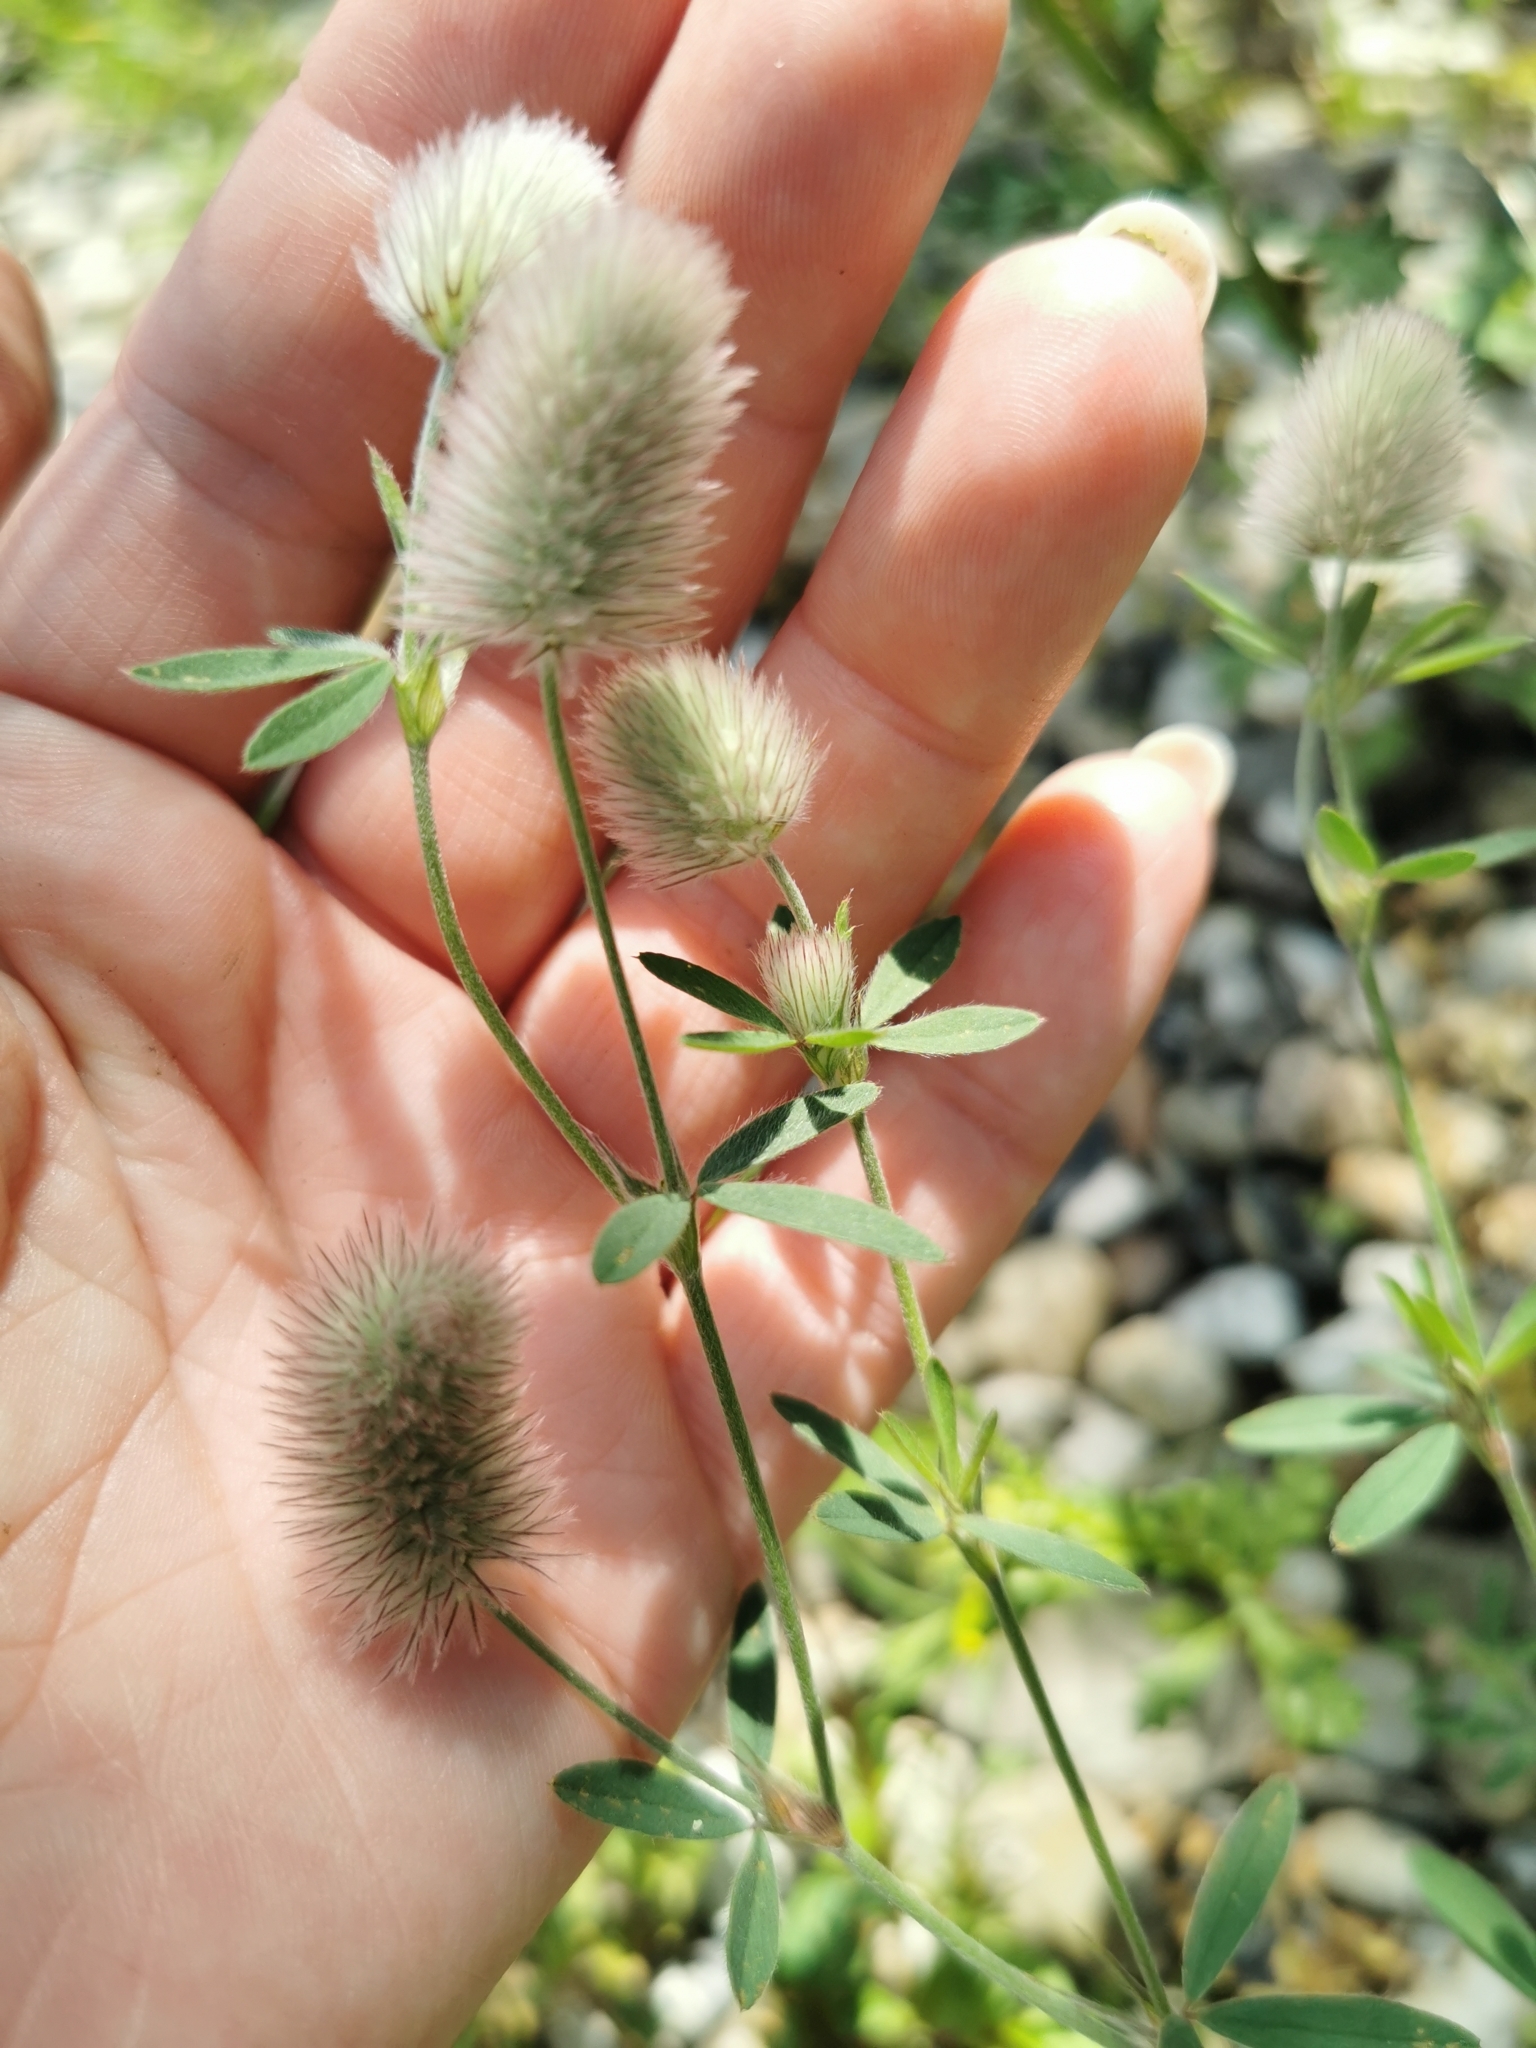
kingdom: Plantae
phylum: Tracheophyta
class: Magnoliopsida
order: Fabales
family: Fabaceae
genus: Trifolium
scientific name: Trifolium arvense
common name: Hare's-foot clover
